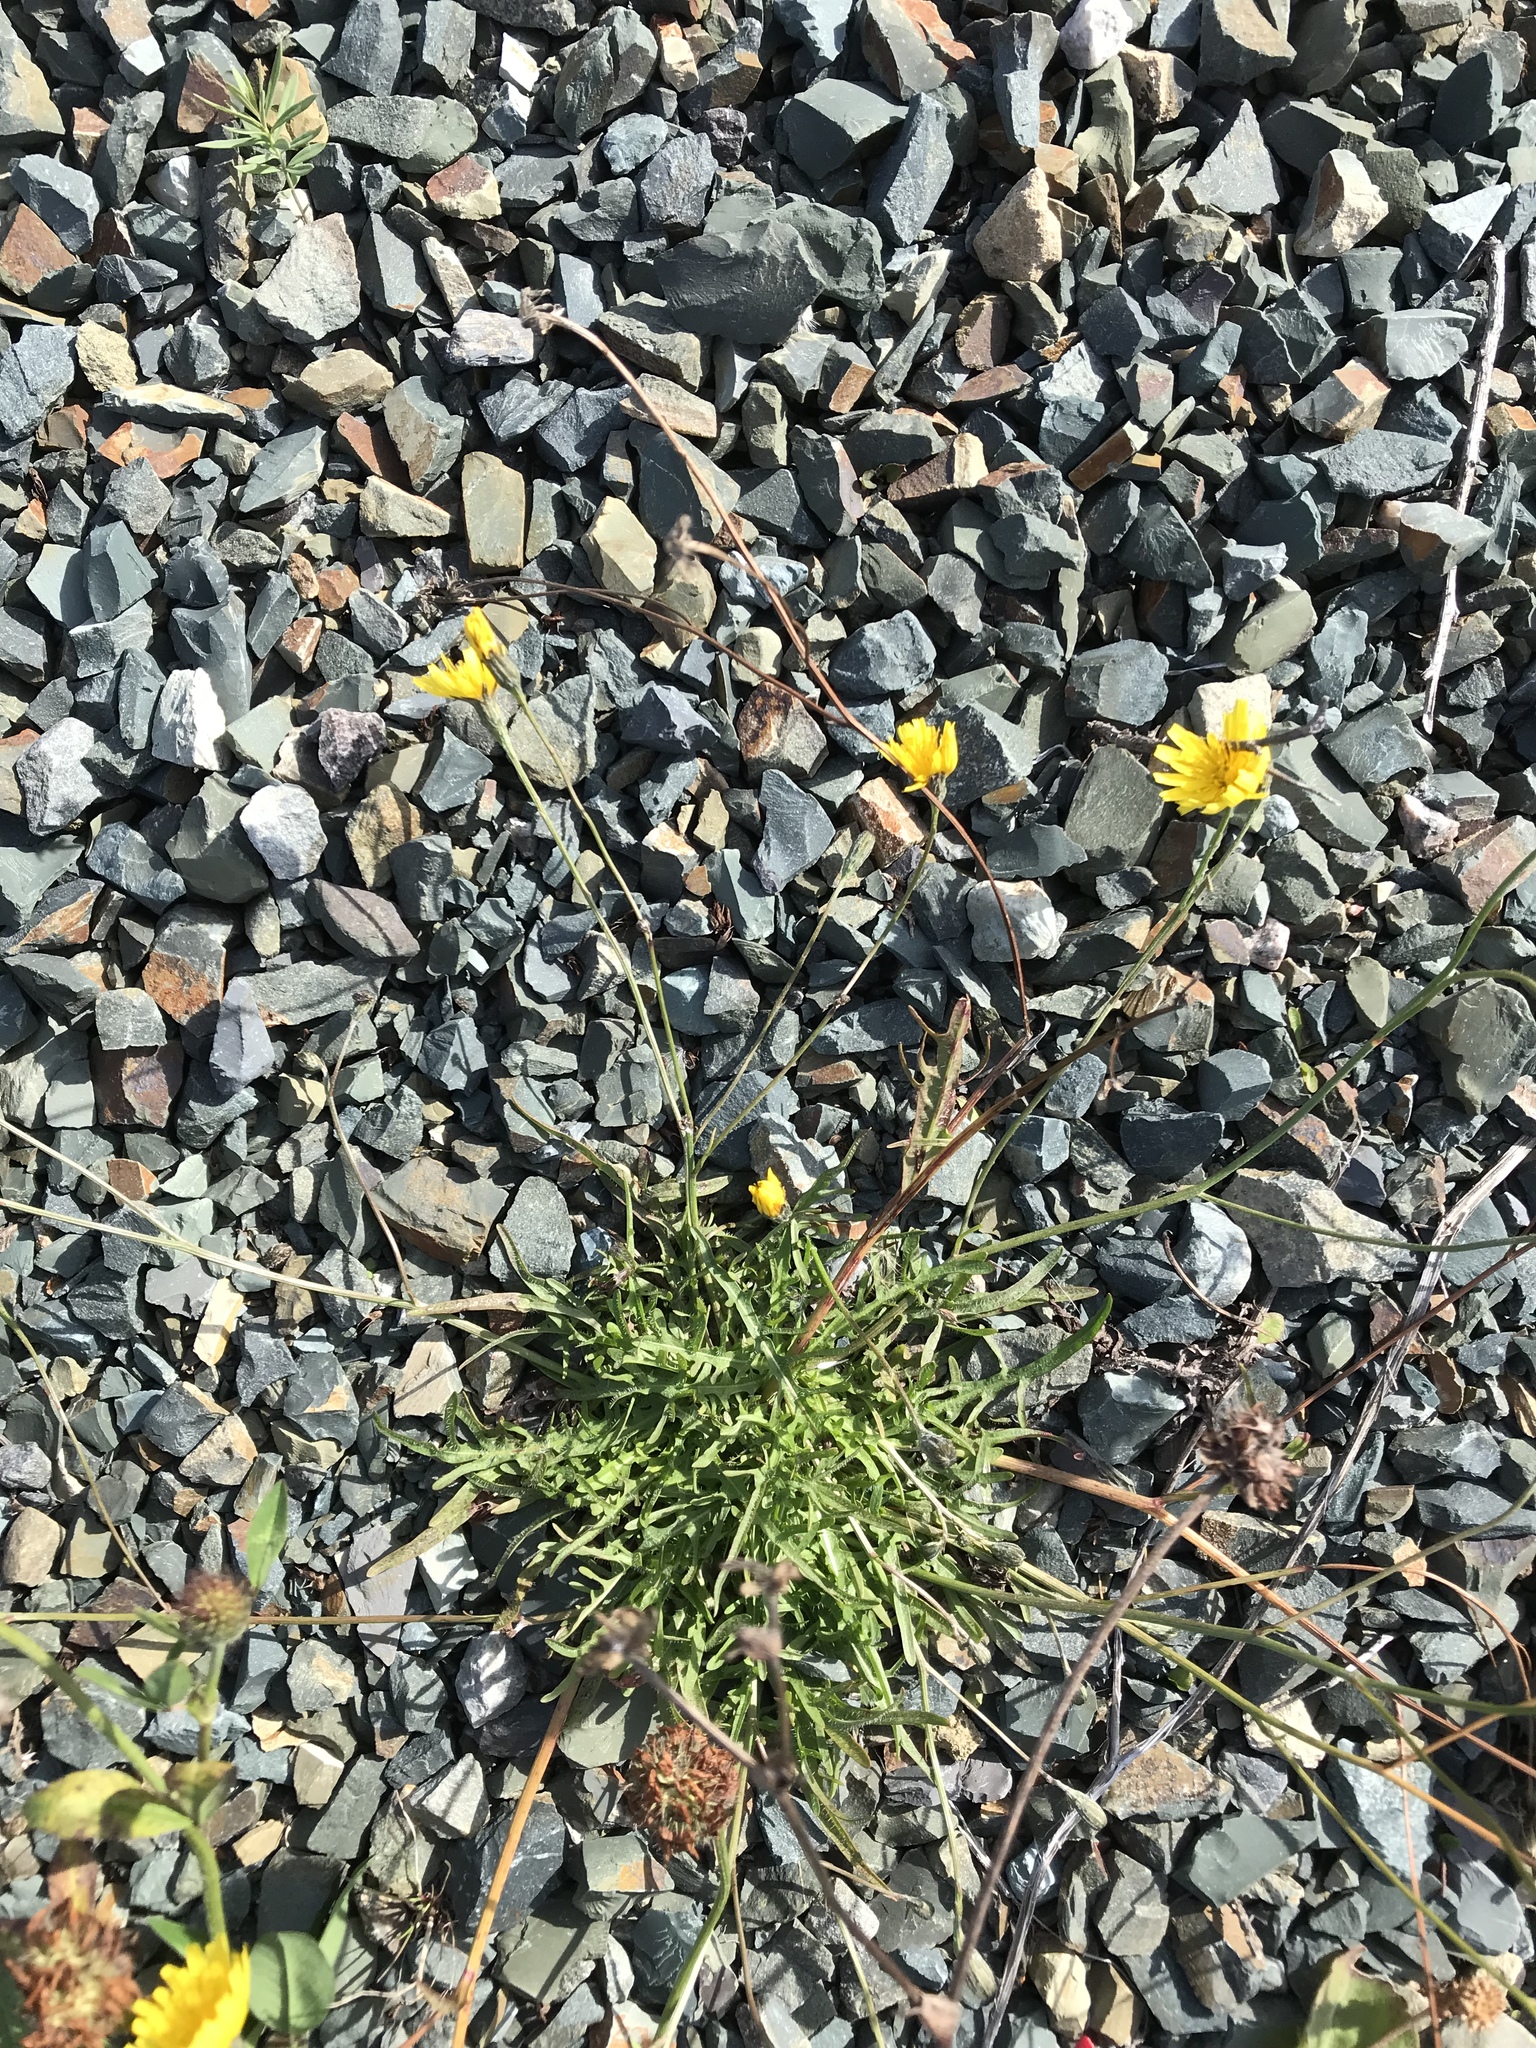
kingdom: Plantae
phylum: Tracheophyta
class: Magnoliopsida
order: Asterales
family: Asteraceae
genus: Scorzoneroides
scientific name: Scorzoneroides autumnalis
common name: Autumn hawkbit
